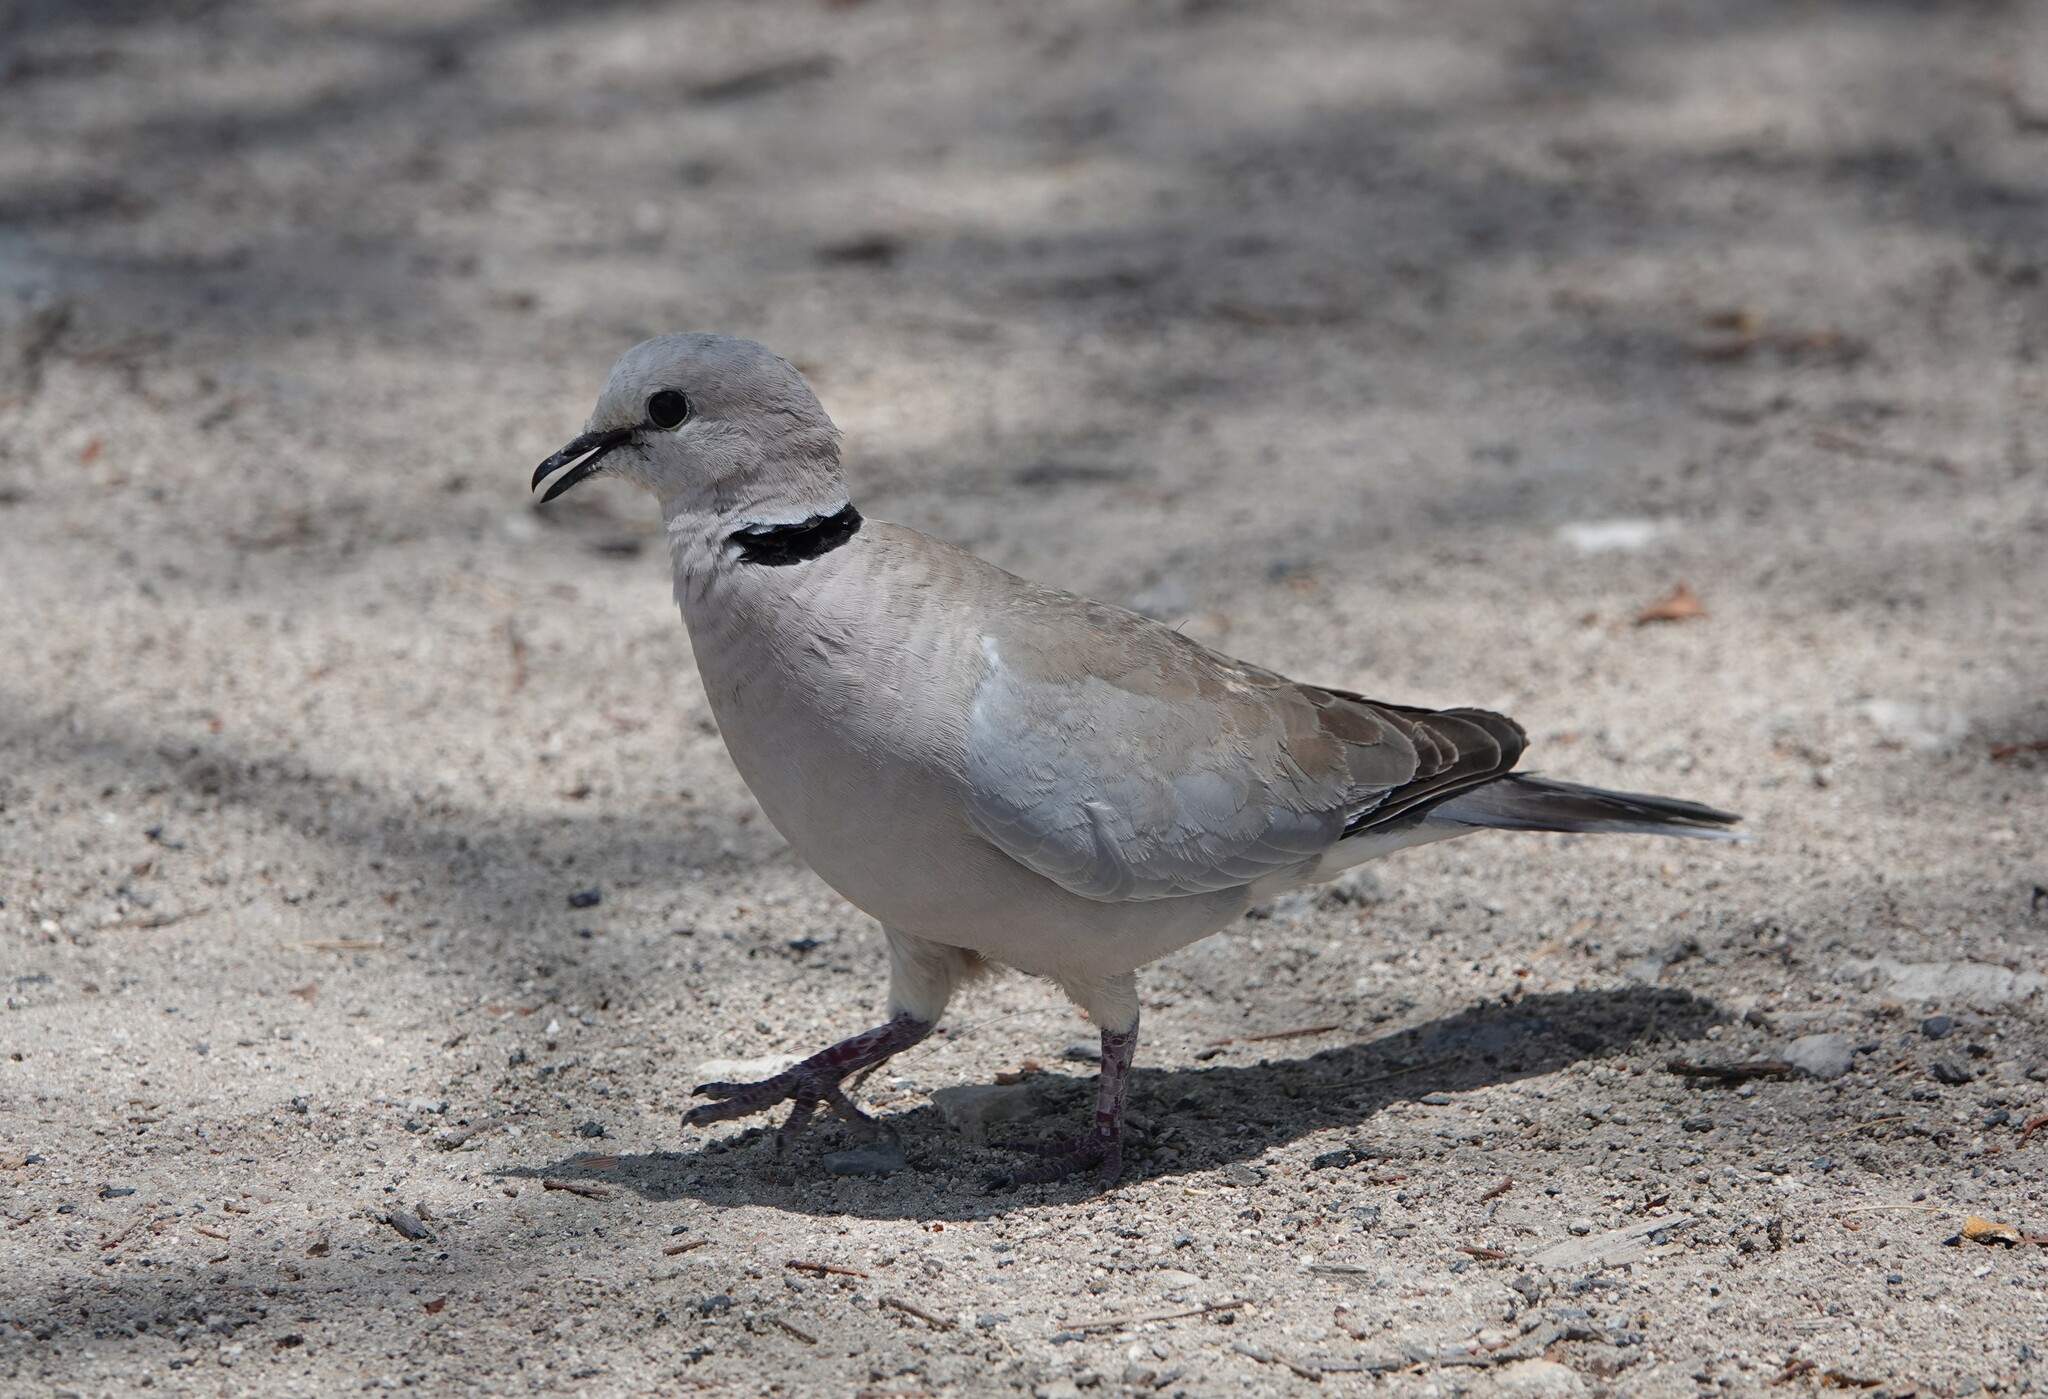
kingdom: Animalia
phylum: Chordata
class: Aves
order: Columbiformes
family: Columbidae
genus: Streptopelia
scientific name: Streptopelia capicola
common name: Ring-necked dove
